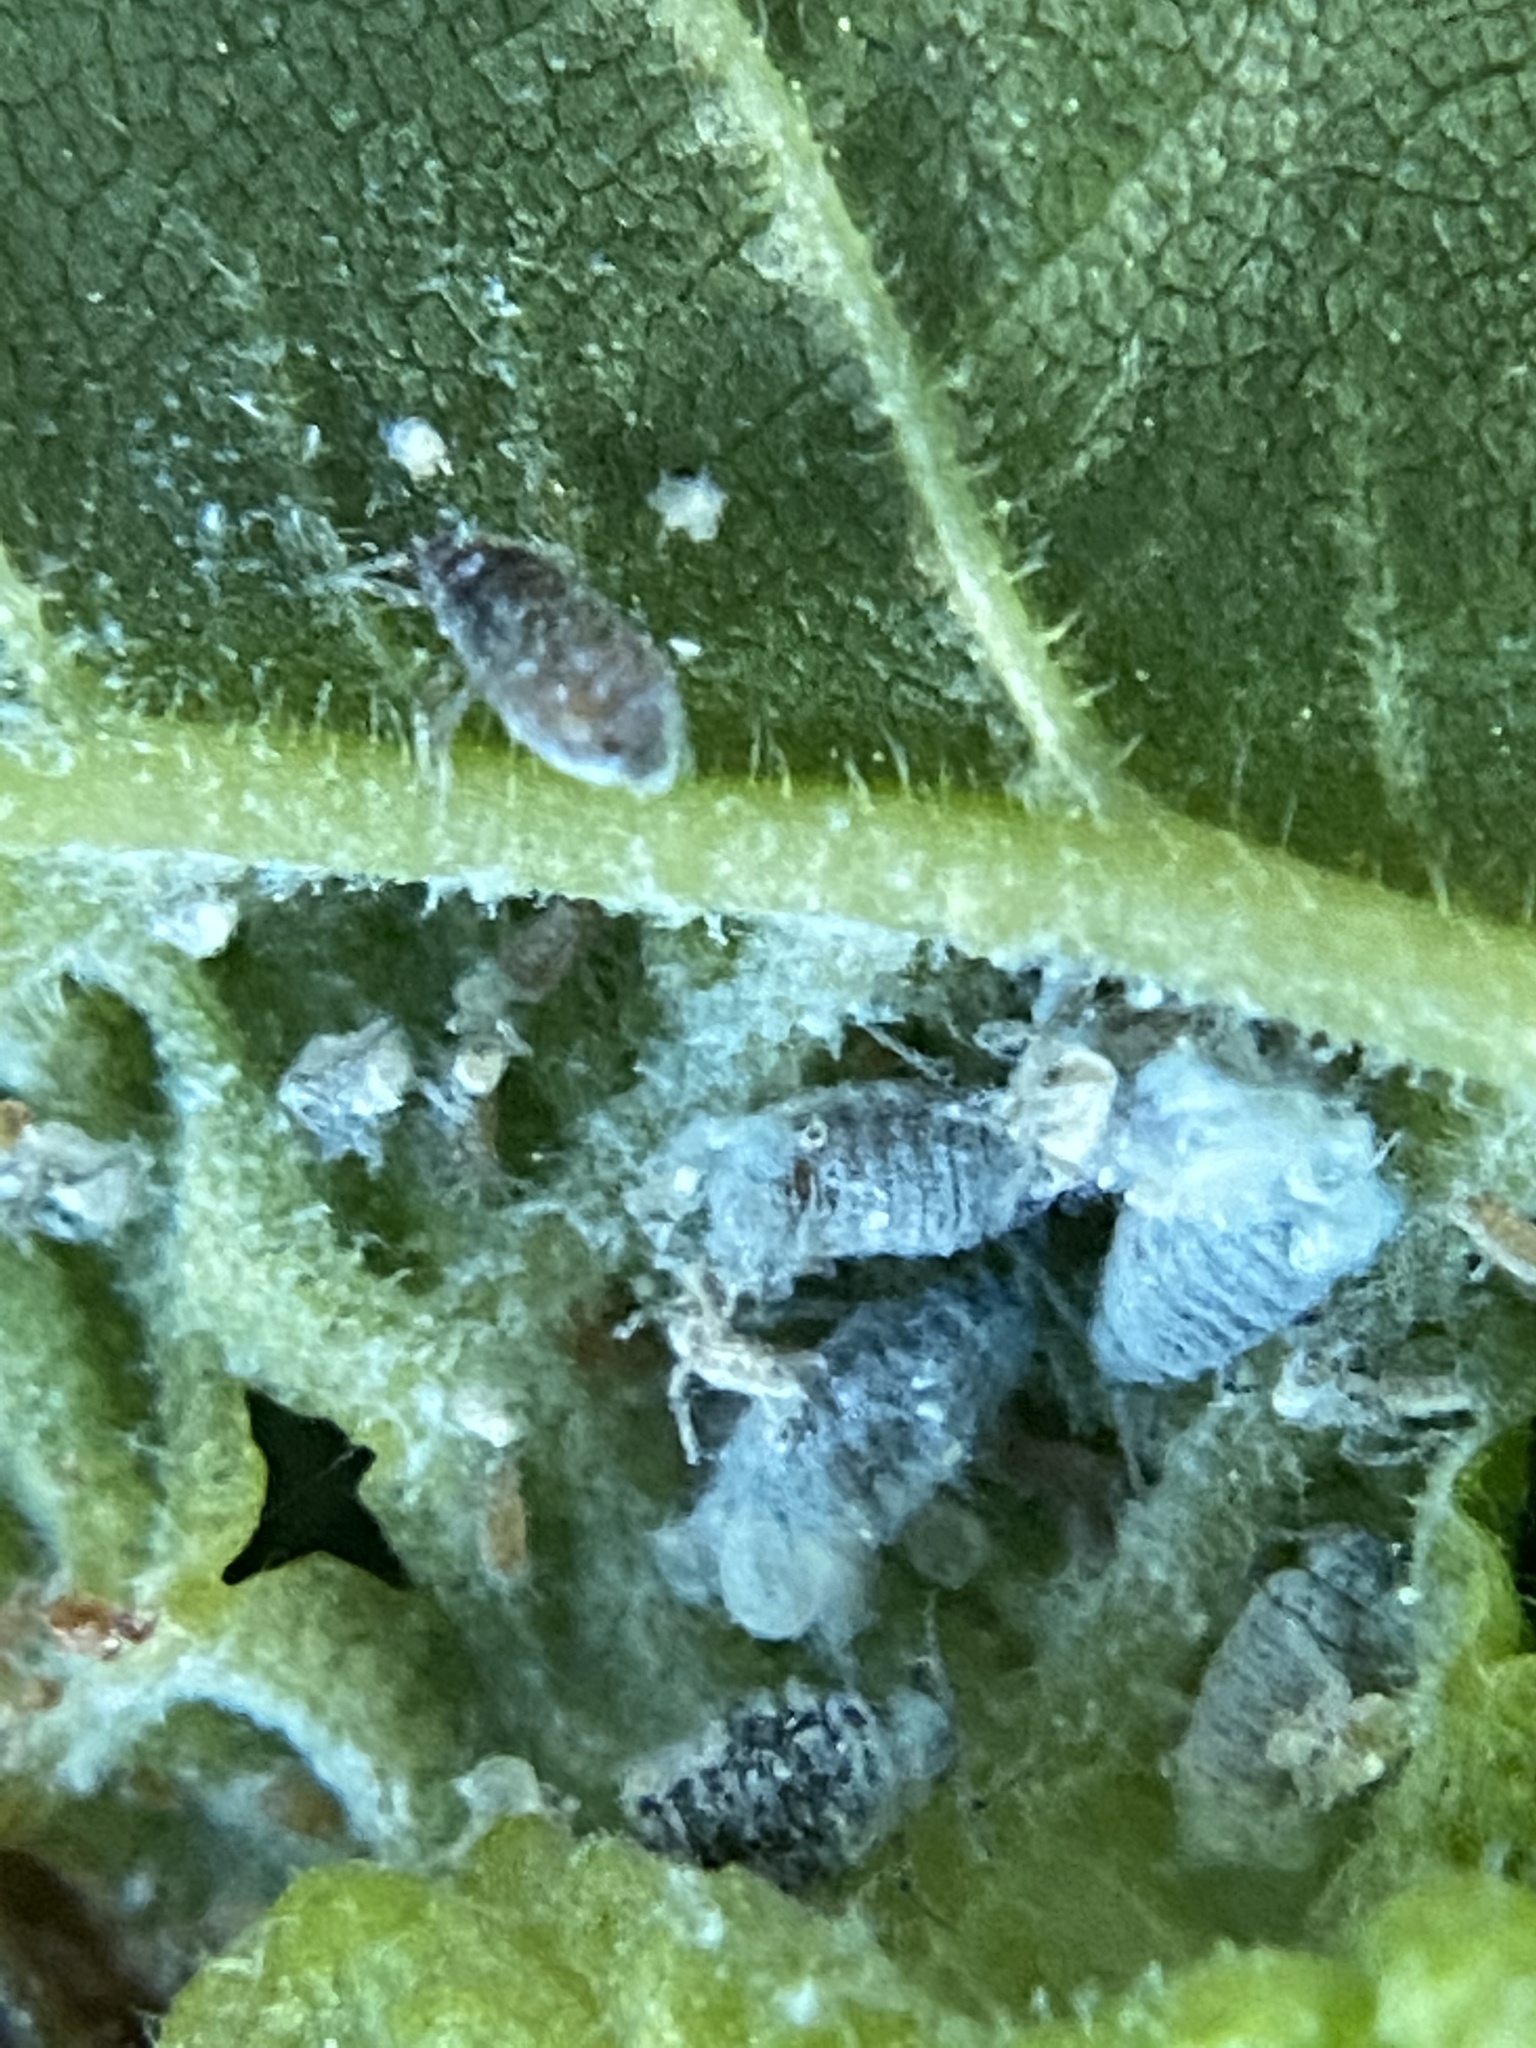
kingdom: Animalia
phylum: Arthropoda
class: Insecta
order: Hemiptera
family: Aphididae
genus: Eriosoma
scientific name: Eriosoma americanum
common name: Woolly elm aphid
